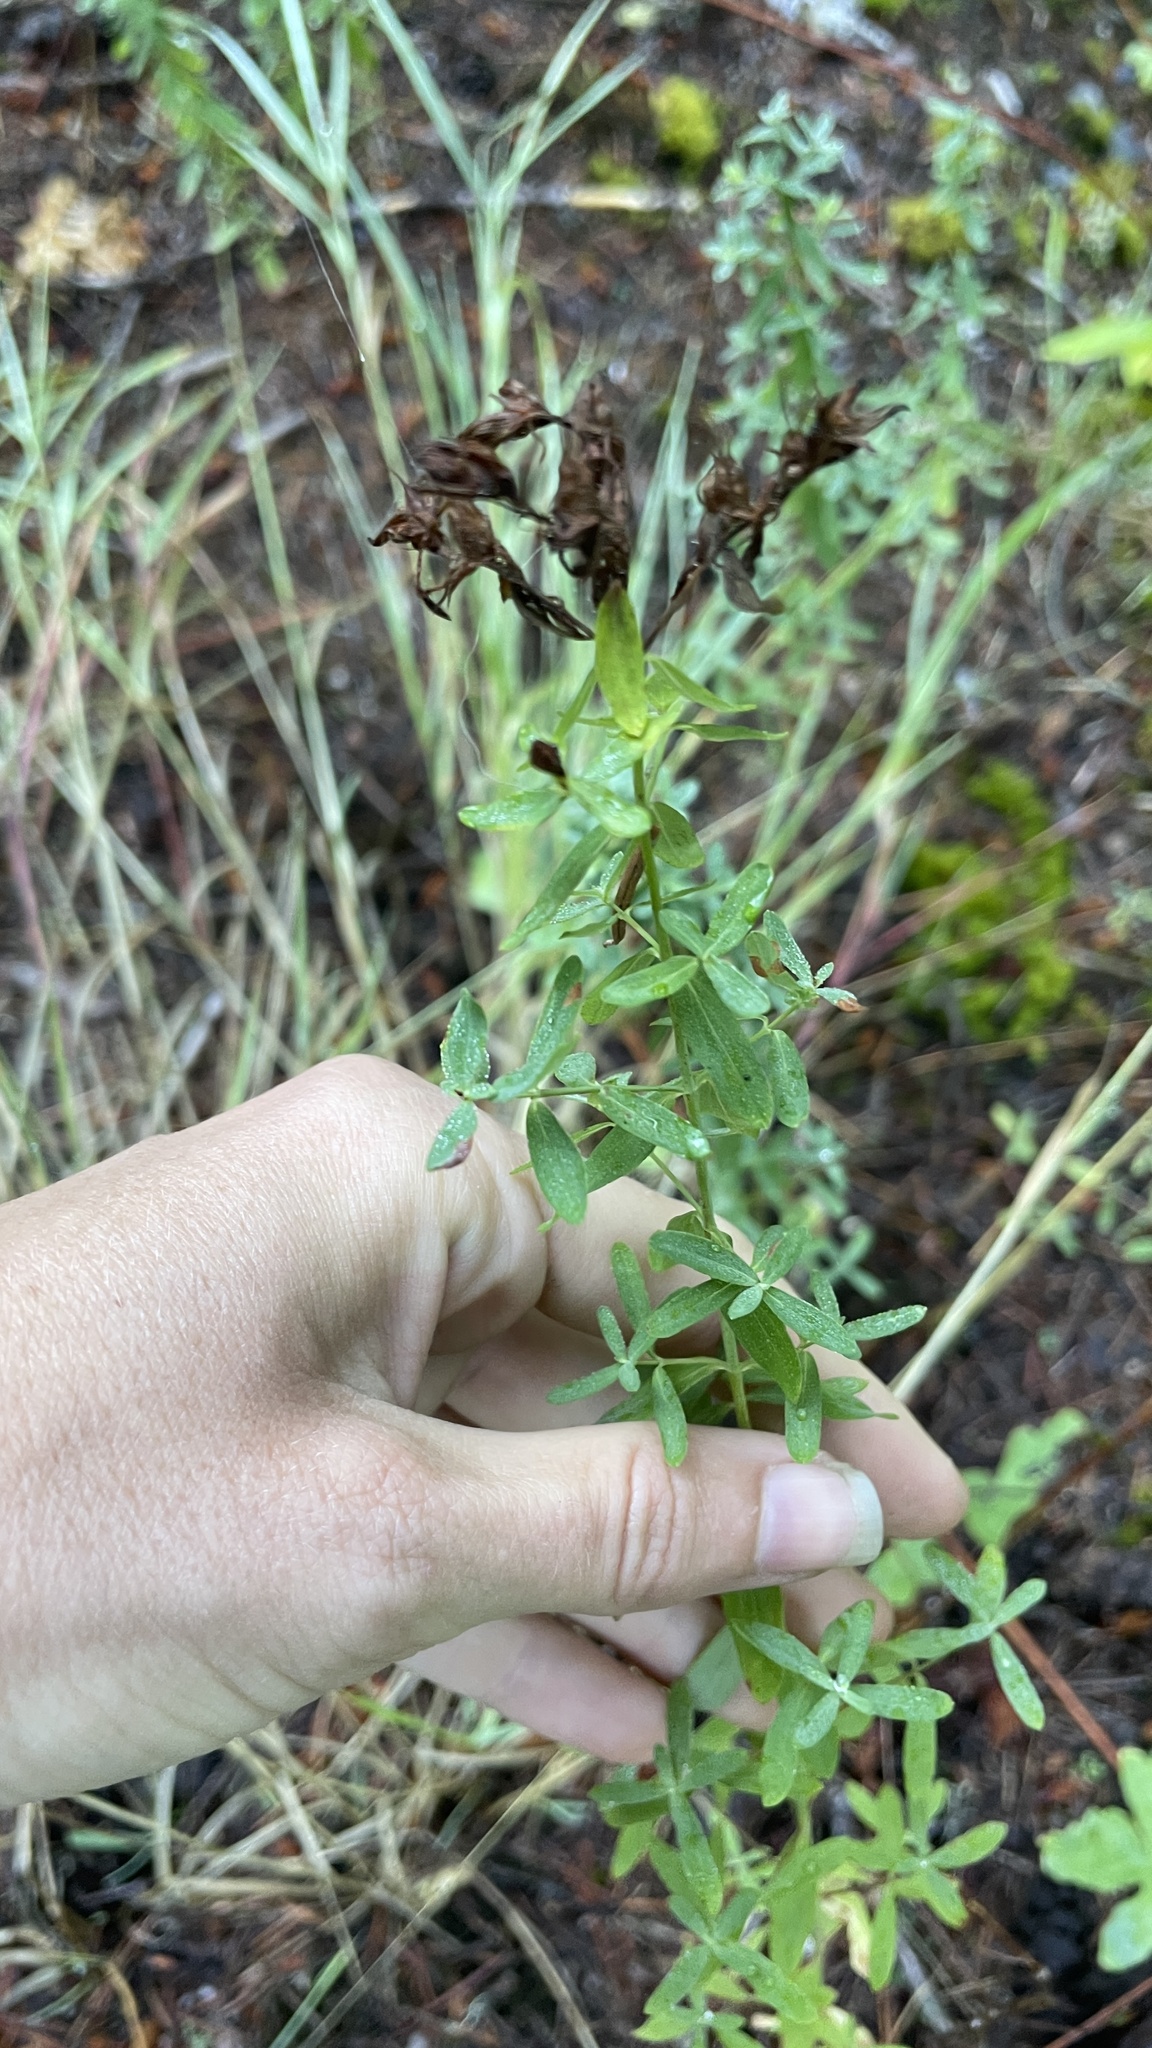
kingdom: Plantae
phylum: Tracheophyta
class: Magnoliopsida
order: Malpighiales
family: Hypericaceae
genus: Hypericum
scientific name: Hypericum perforatum
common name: Common st. johnswort
